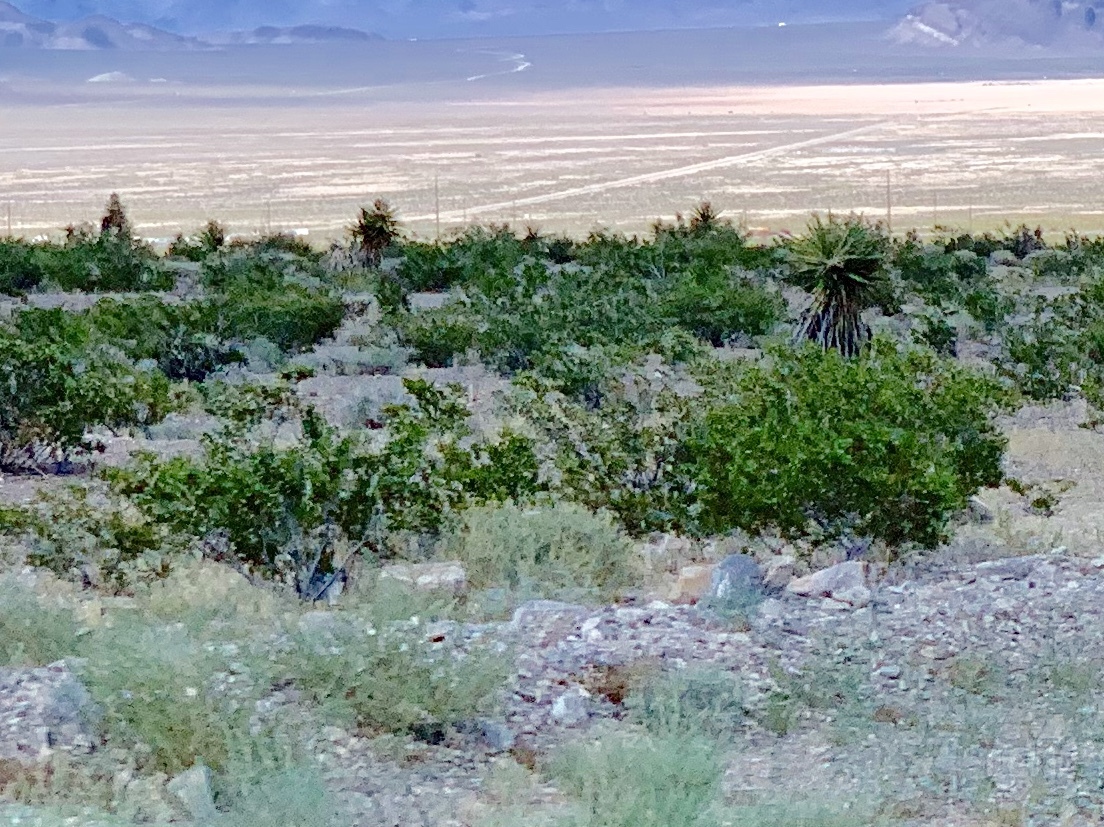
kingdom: Plantae
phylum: Tracheophyta
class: Magnoliopsida
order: Zygophyllales
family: Zygophyllaceae
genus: Larrea
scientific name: Larrea tridentata
